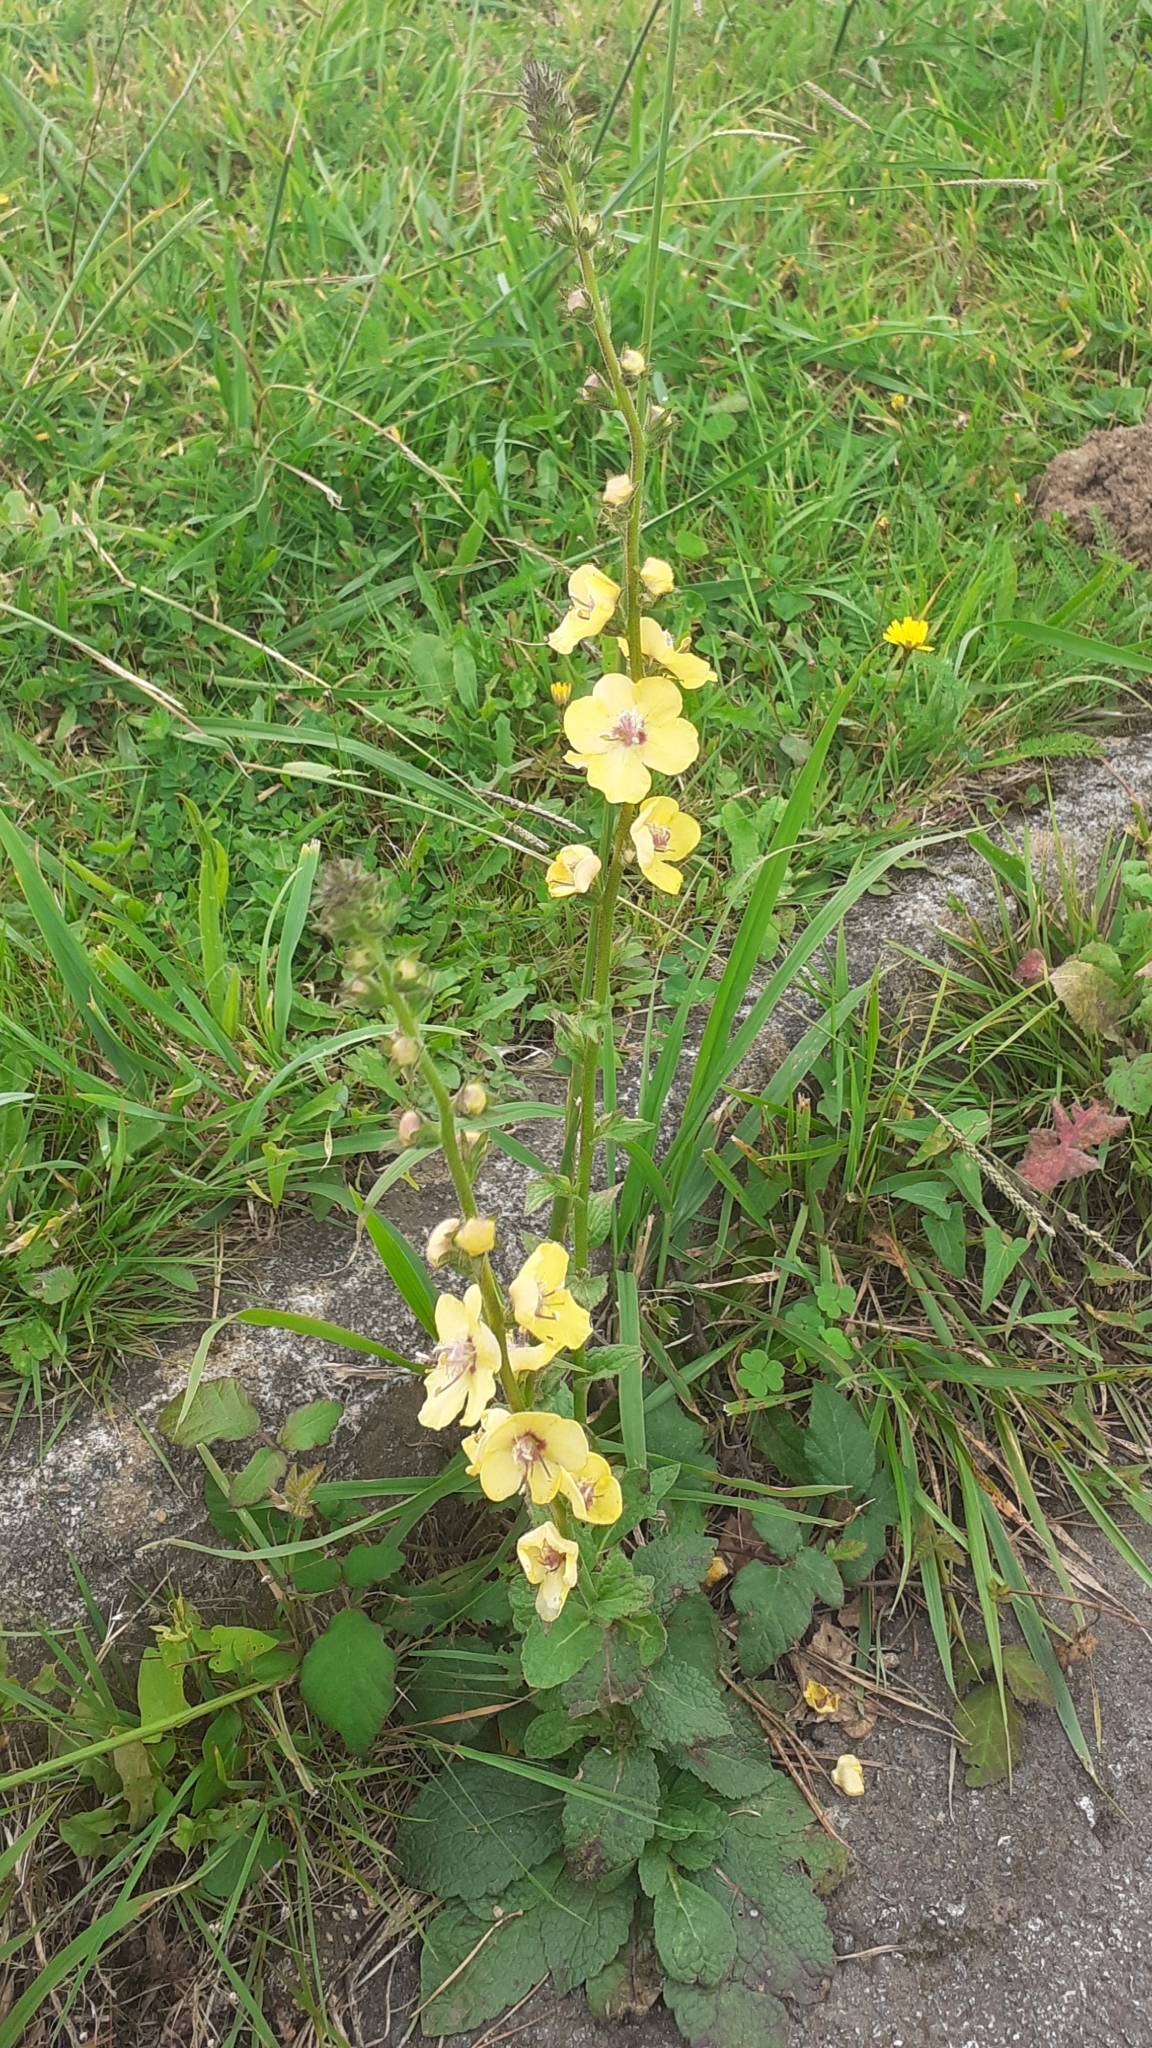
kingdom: Plantae
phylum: Tracheophyta
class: Magnoliopsida
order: Lamiales
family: Scrophulariaceae
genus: Verbascum
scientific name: Verbascum virgatum
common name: Twiggy mullein
